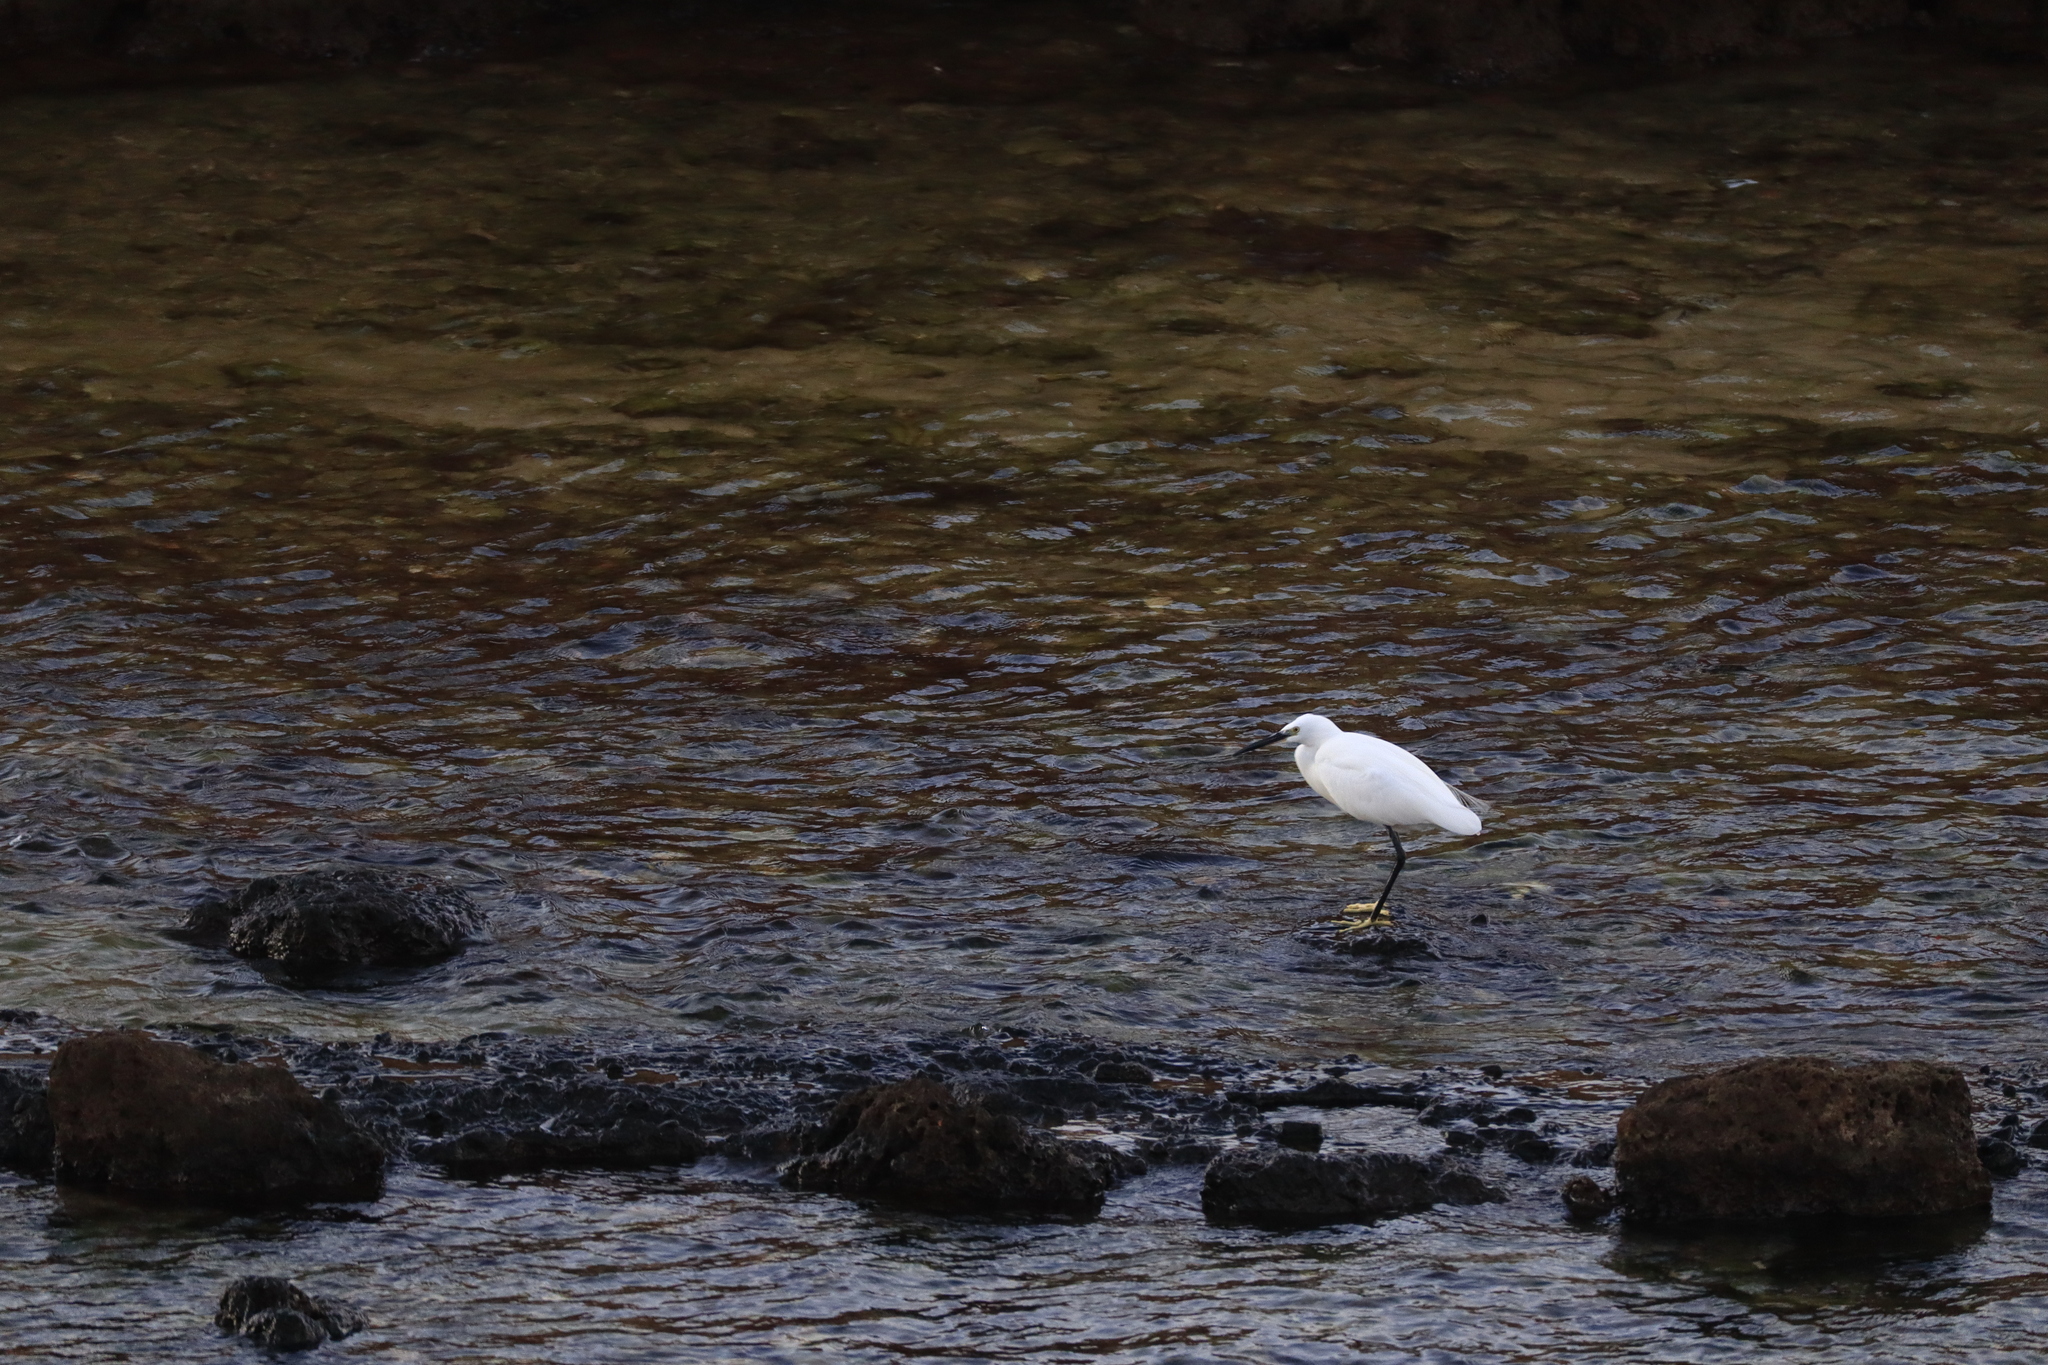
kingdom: Animalia
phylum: Chordata
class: Aves
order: Pelecaniformes
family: Ardeidae
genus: Egretta
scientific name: Egretta garzetta
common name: Little egret
